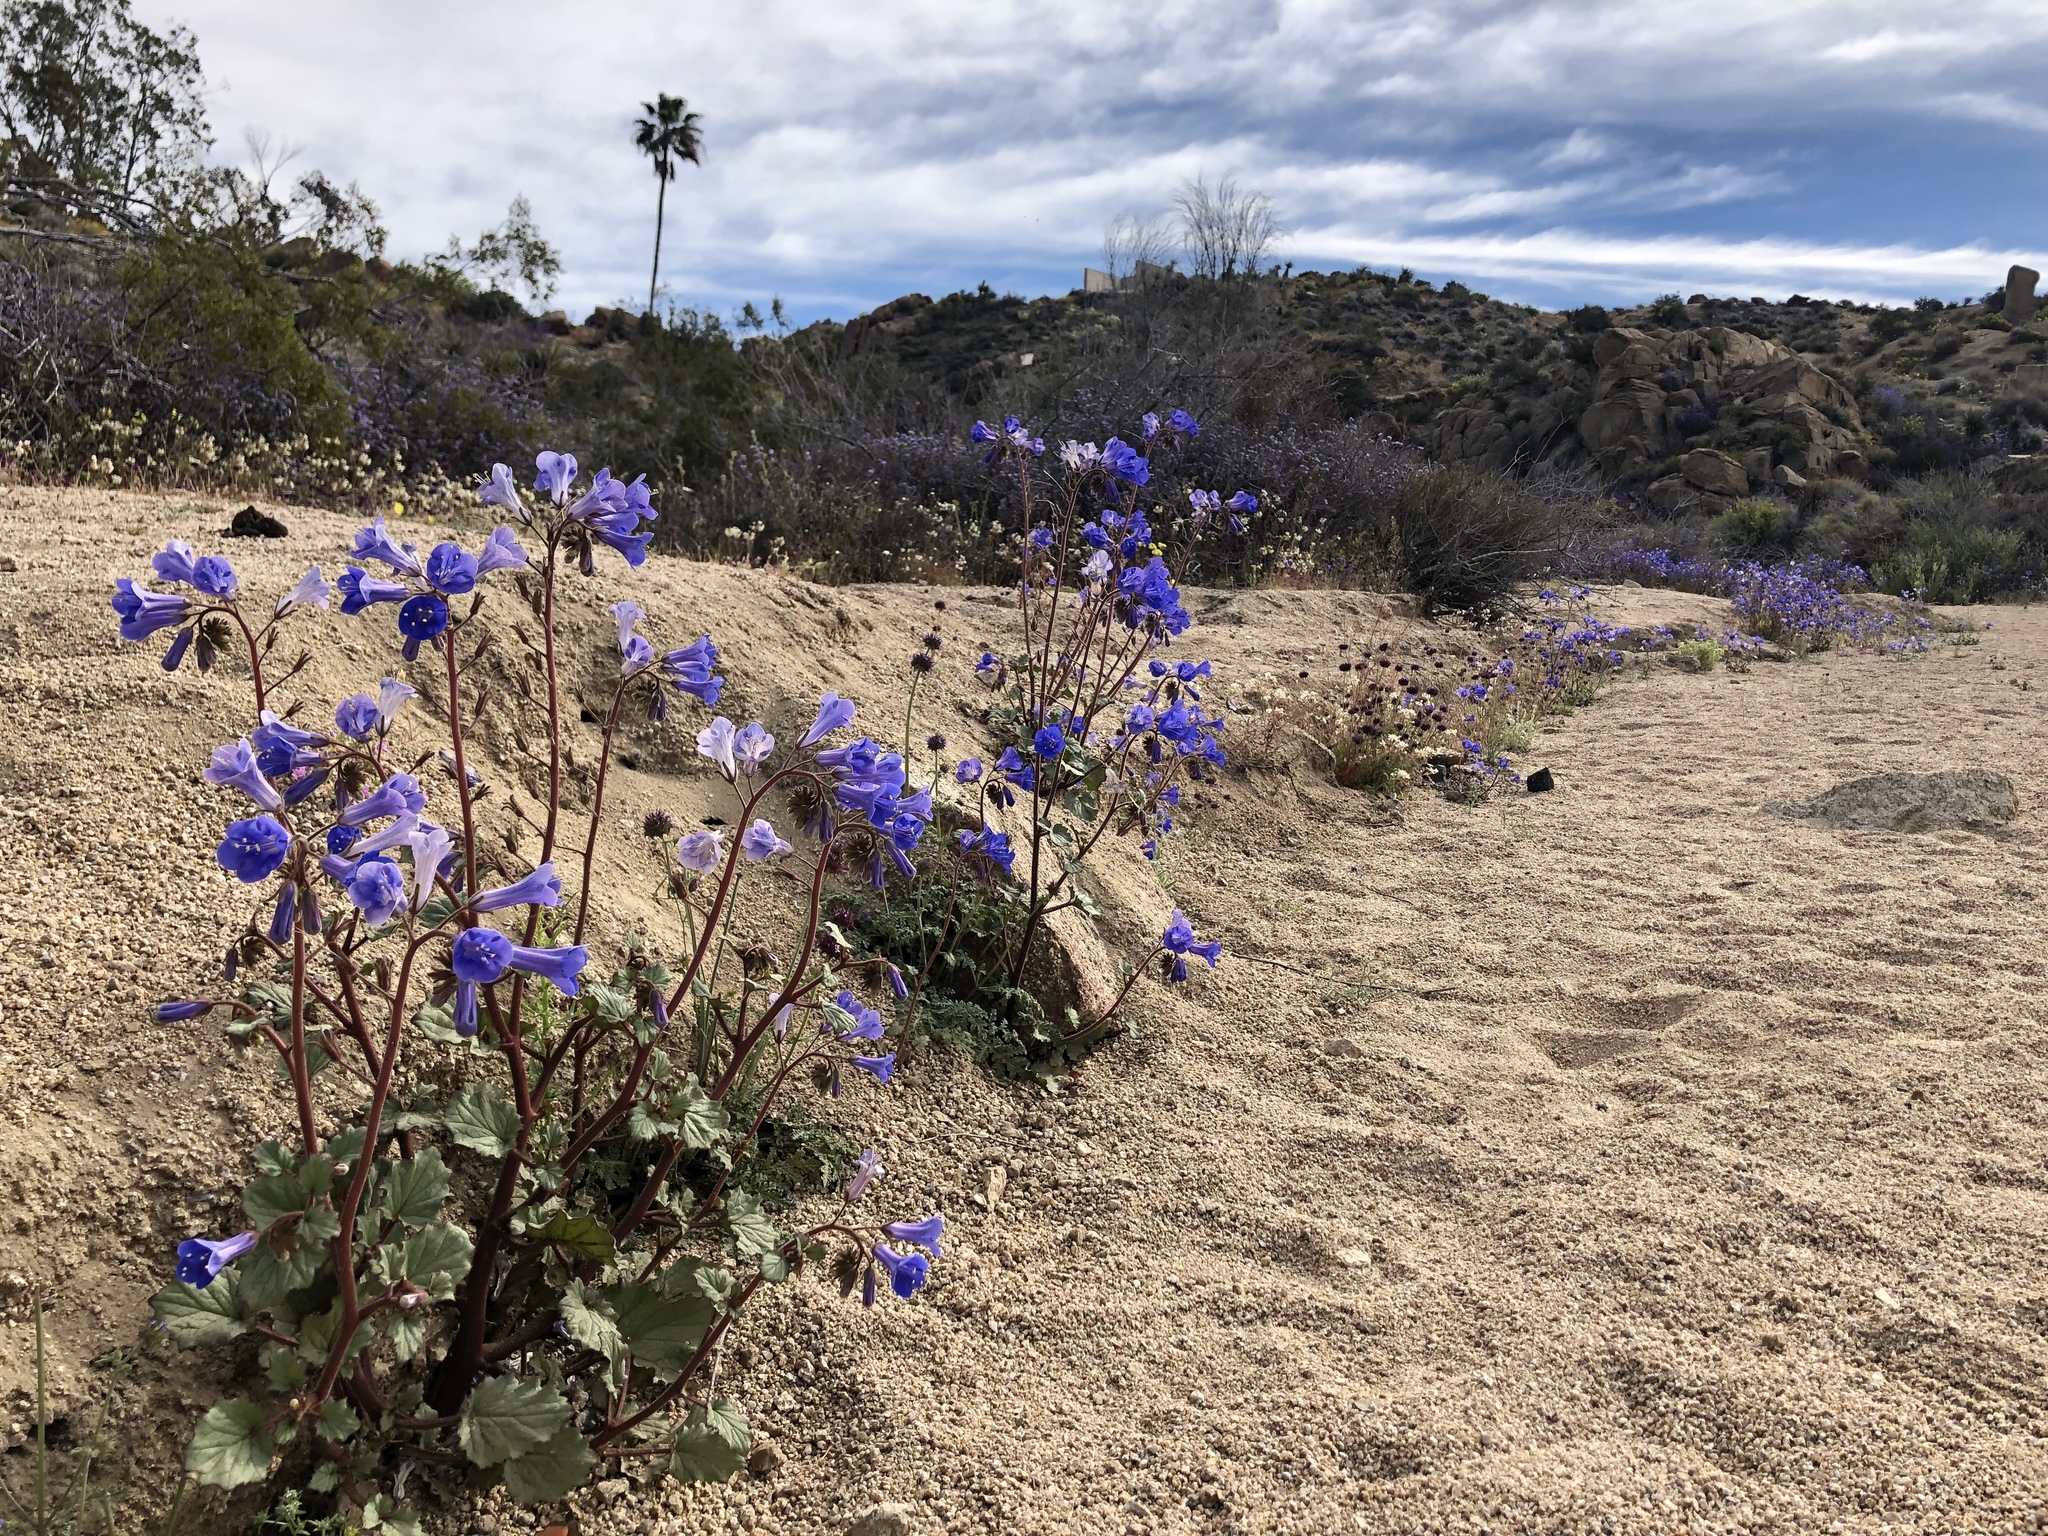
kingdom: Plantae
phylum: Tracheophyta
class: Magnoliopsida
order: Boraginales
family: Hydrophyllaceae
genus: Phacelia
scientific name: Phacelia campanularia
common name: California bluebell
